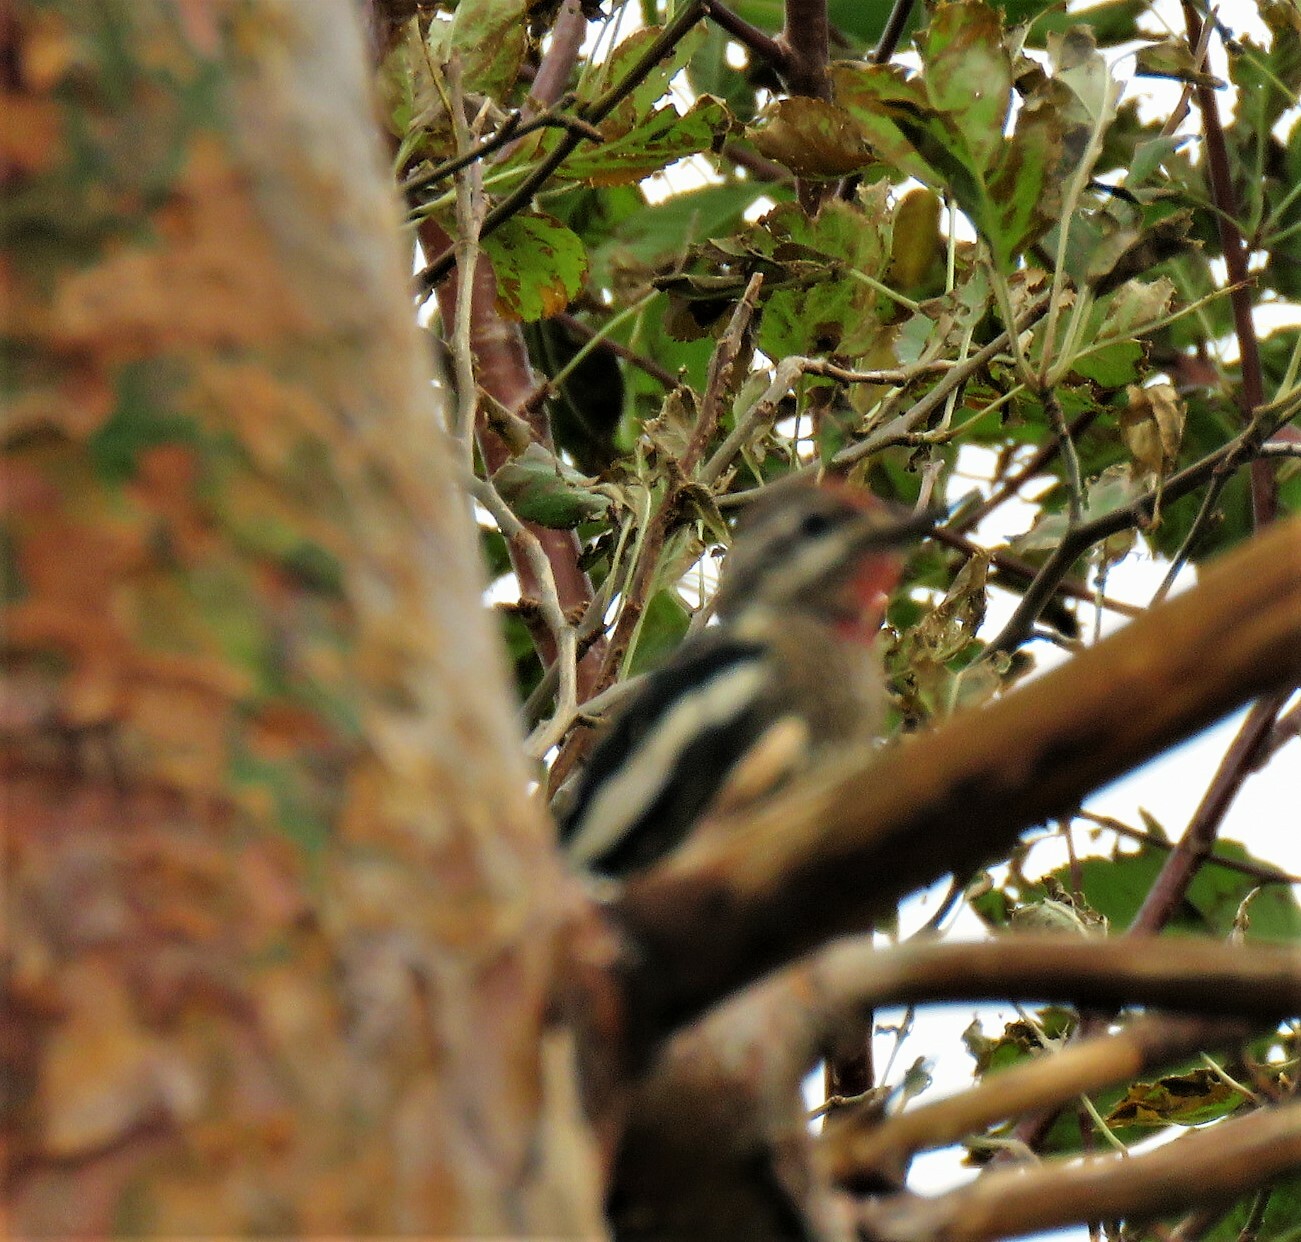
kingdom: Animalia
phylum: Chordata
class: Aves
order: Piciformes
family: Picidae
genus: Sphyrapicus
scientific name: Sphyrapicus varius
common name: Yellow-bellied sapsucker
